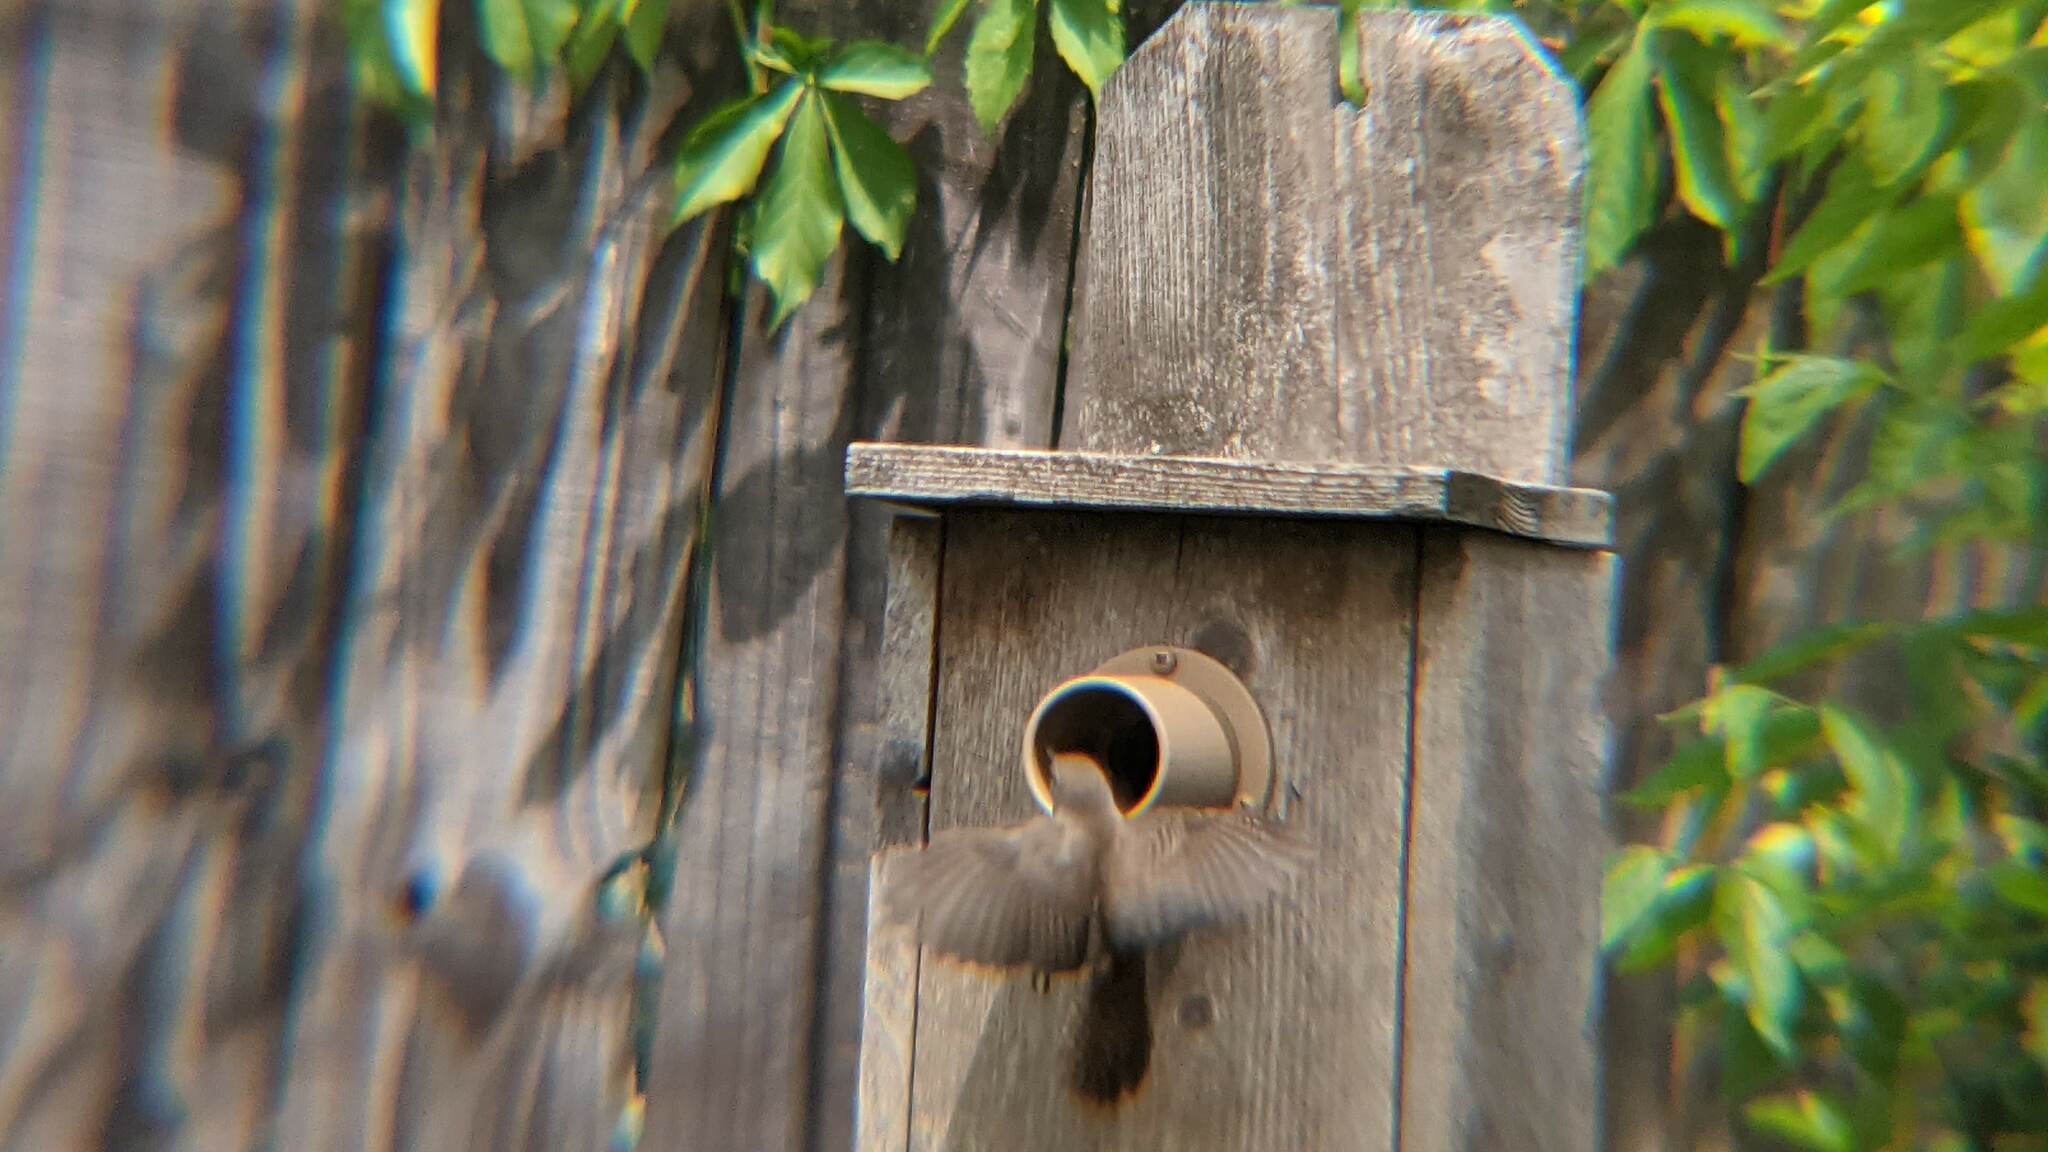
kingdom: Animalia
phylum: Chordata
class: Aves
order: Passeriformes
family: Troglodytidae
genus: Troglodytes
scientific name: Troglodytes aedon
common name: House wren
